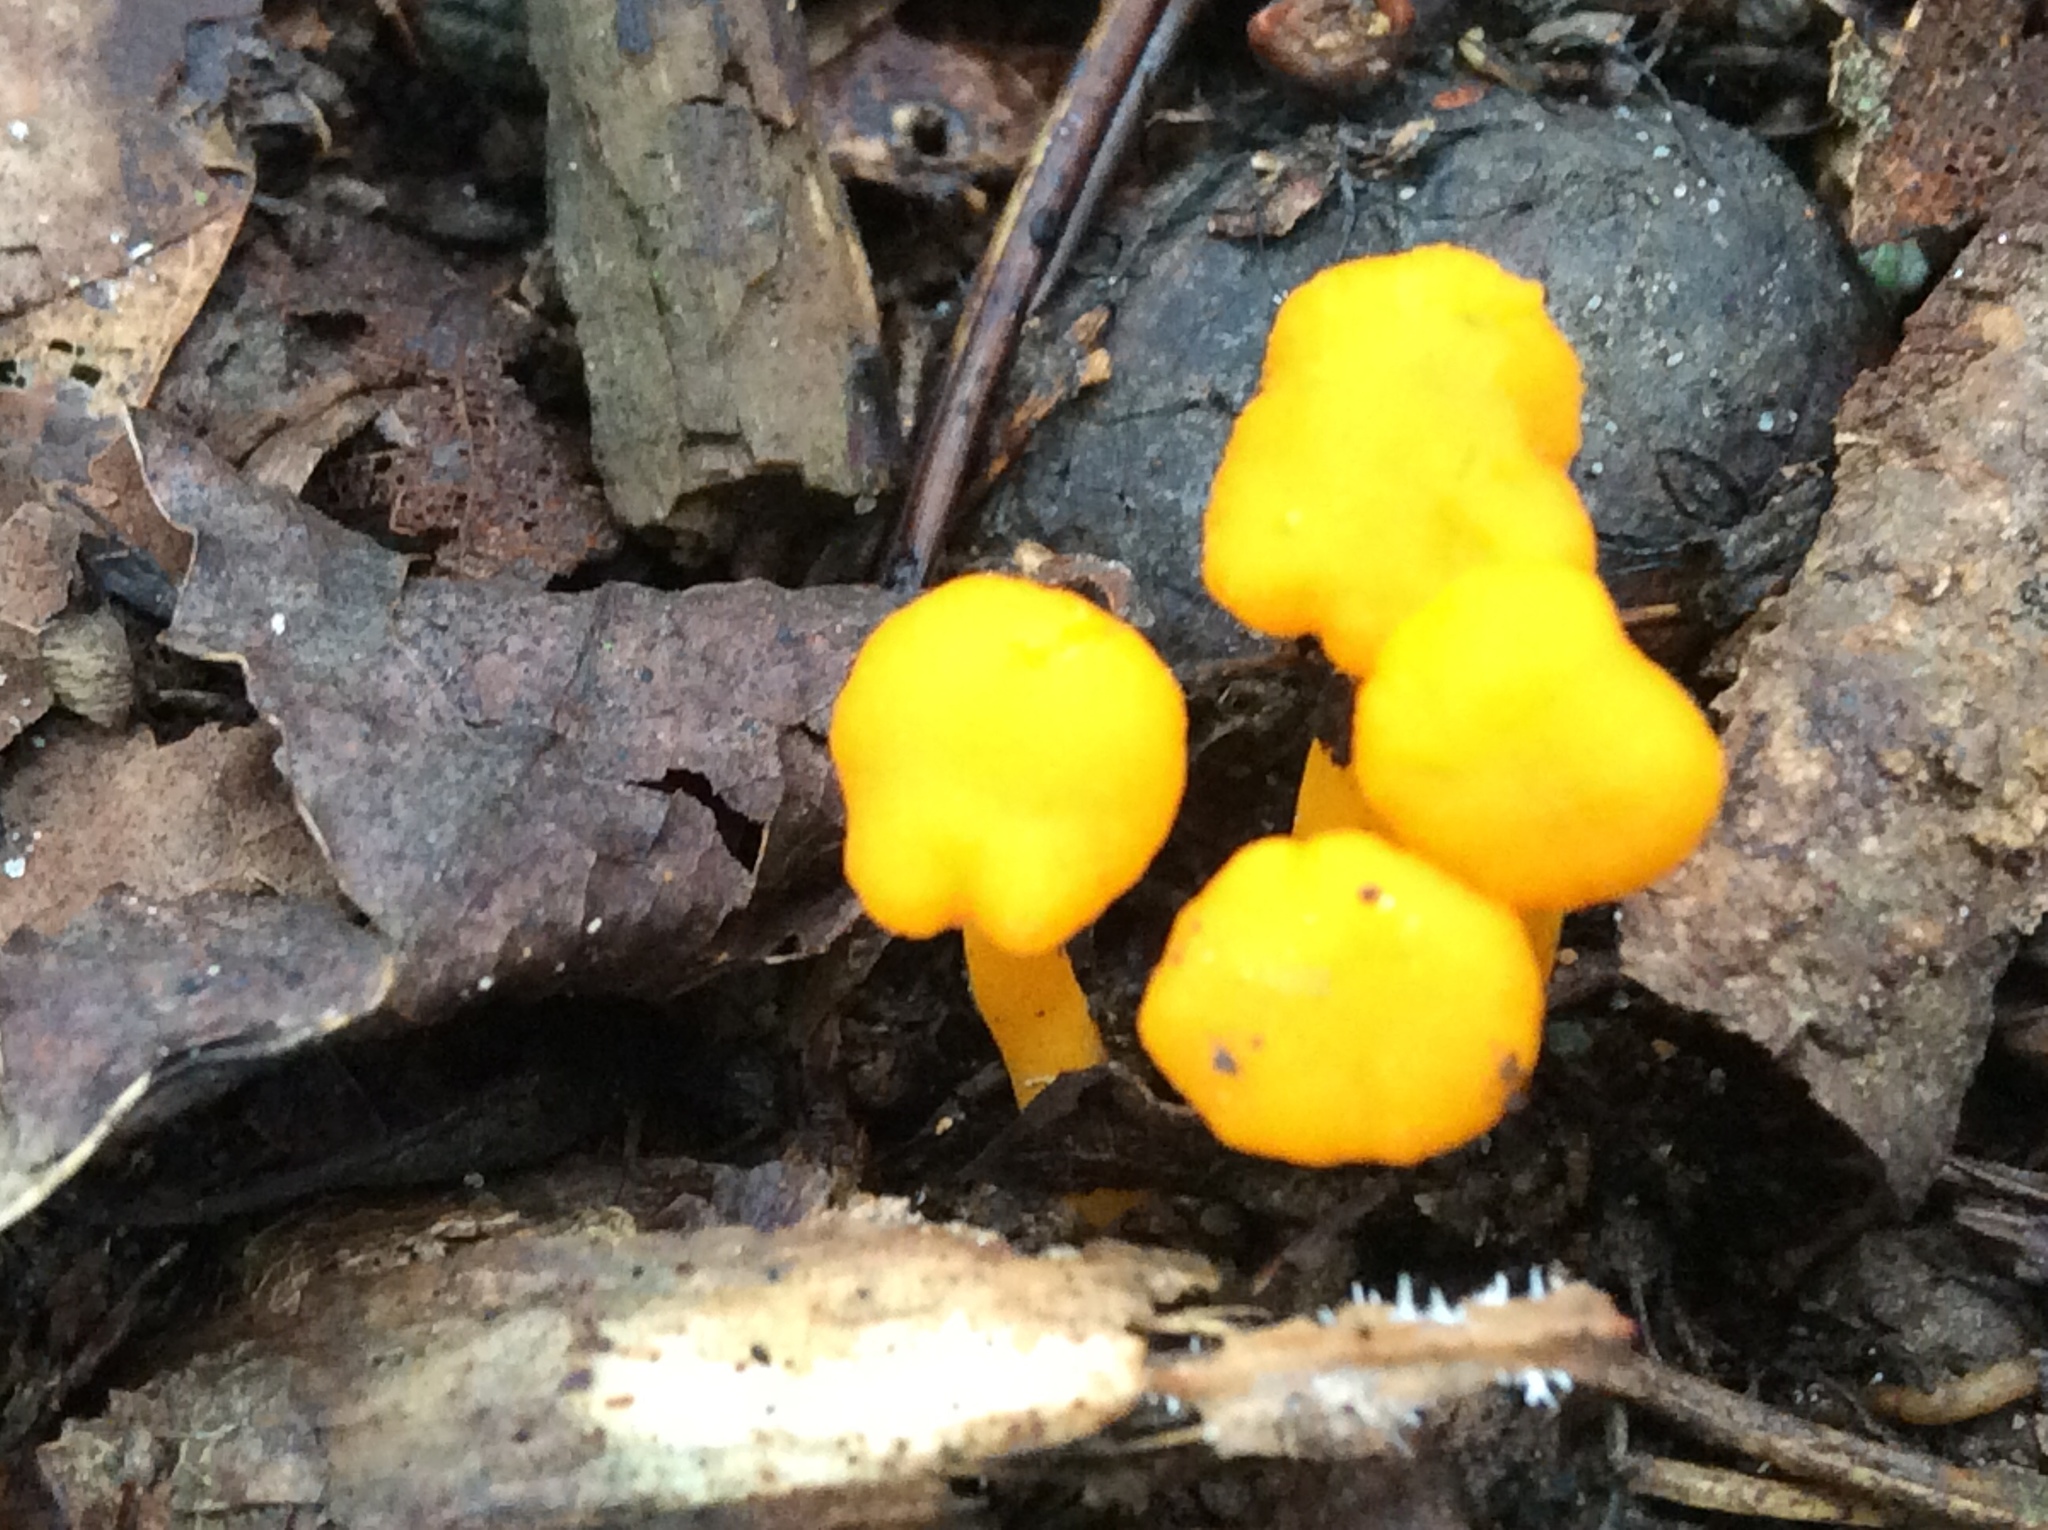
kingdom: Fungi
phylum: Basidiomycota
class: Agaricomycetes
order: Cantharellales
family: Hydnaceae
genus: Cantharellus
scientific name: Cantharellus minor
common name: Small chanterelle
